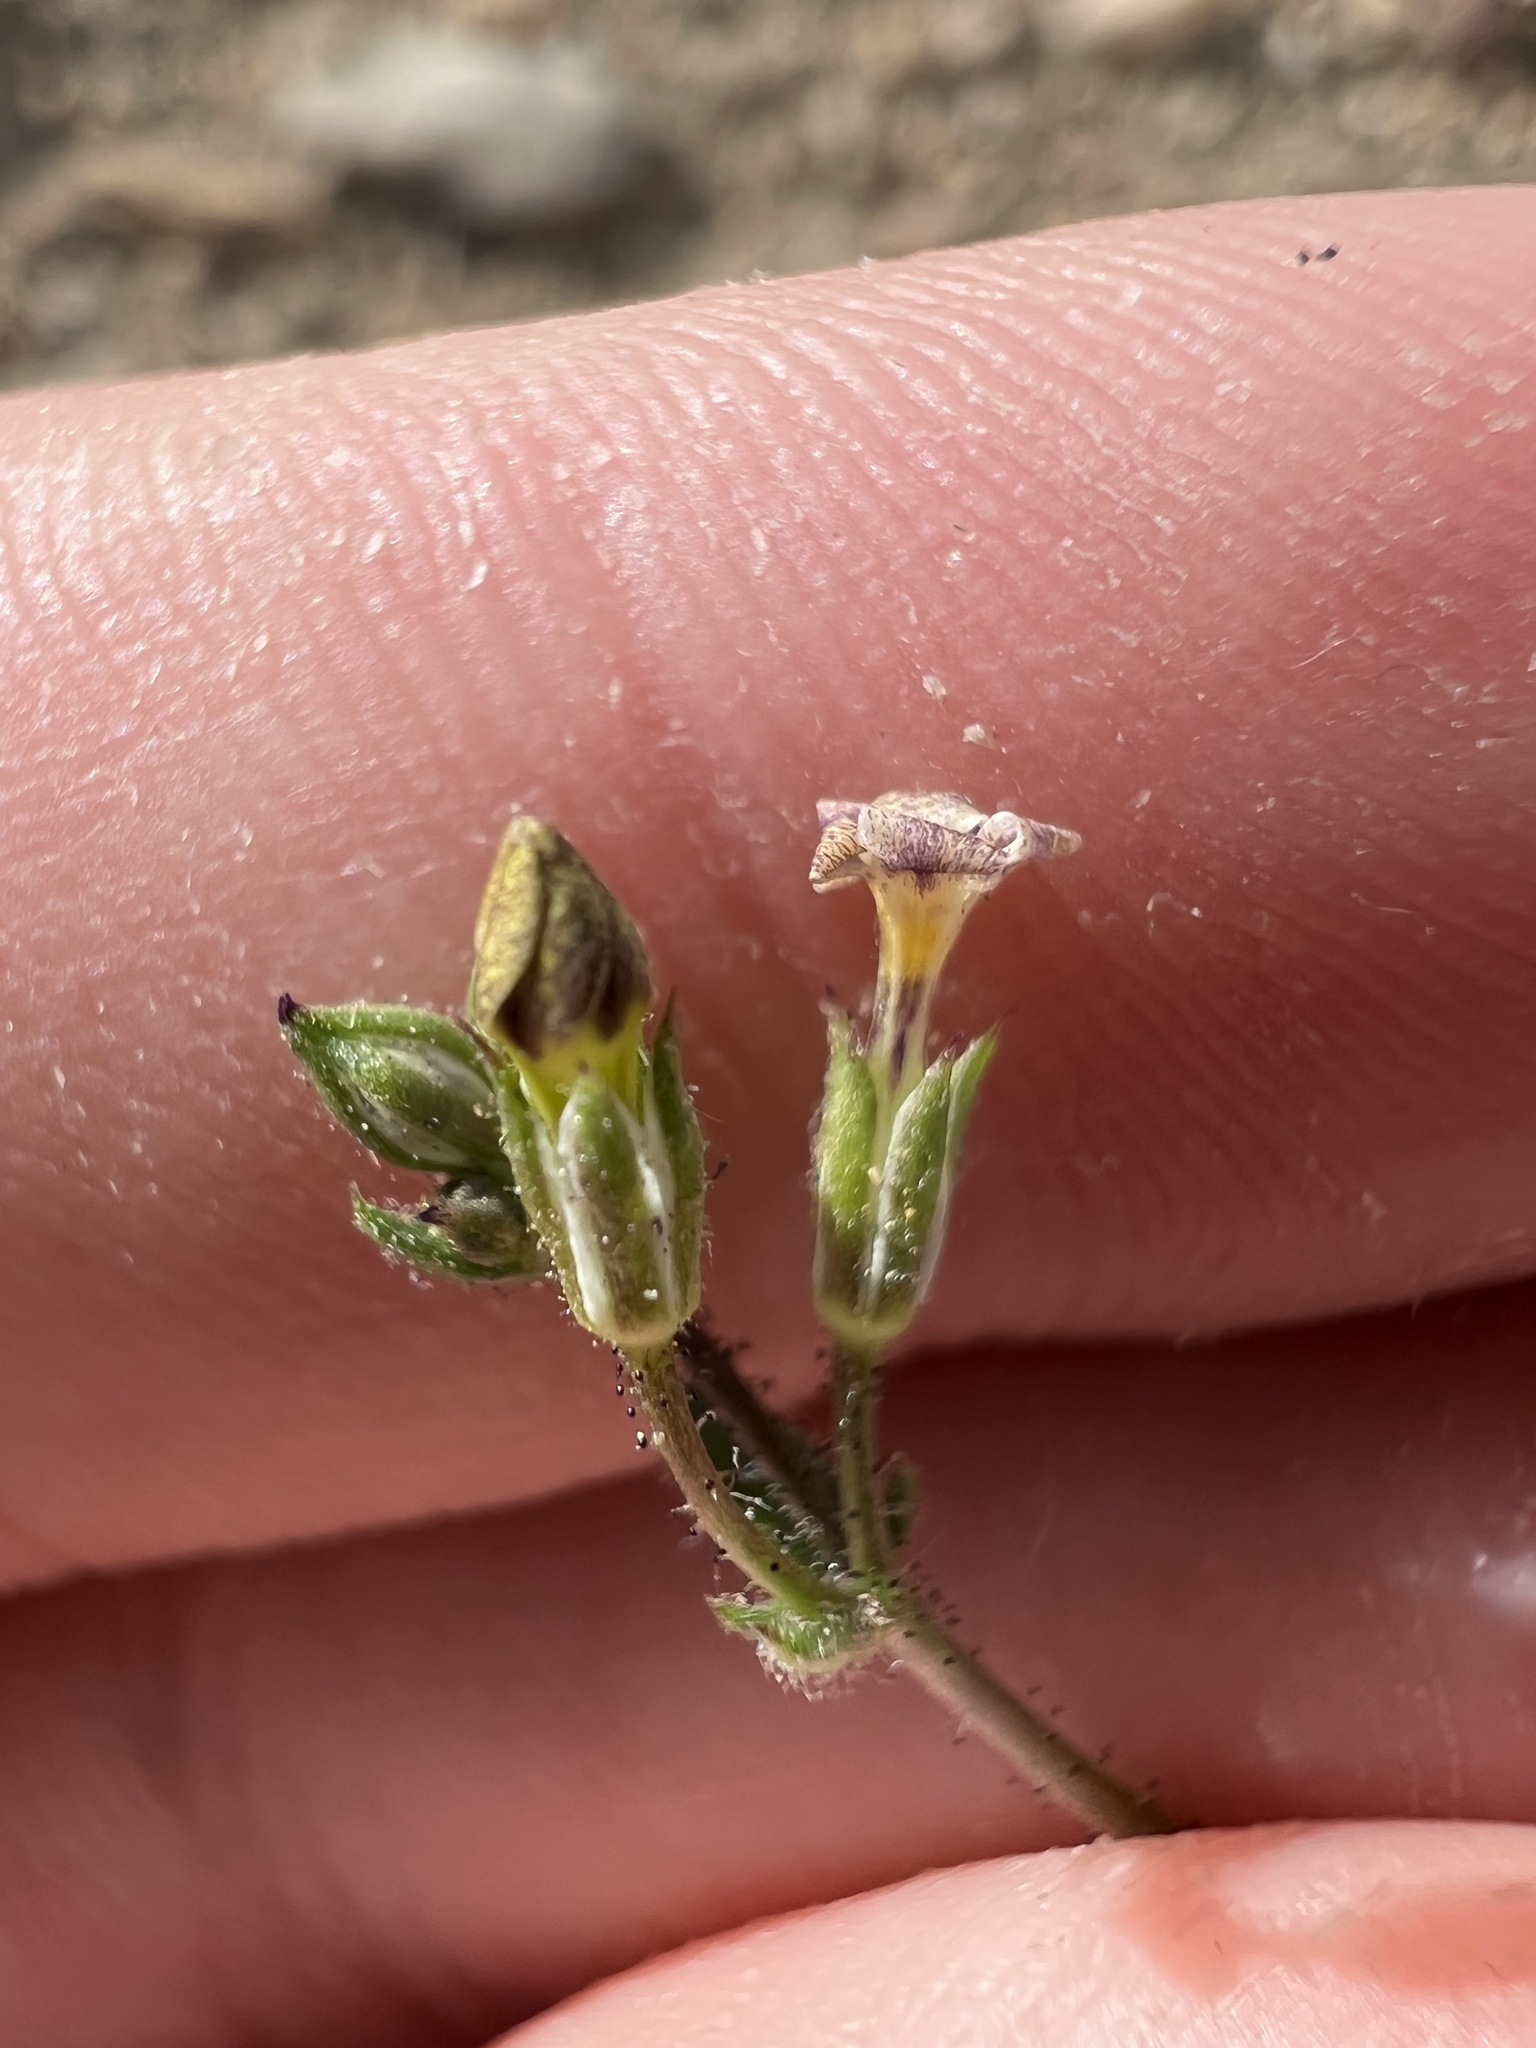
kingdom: Plantae
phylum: Tracheophyta
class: Magnoliopsida
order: Ericales
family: Polemoniaceae
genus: Gilia
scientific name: Gilia clokeyi
